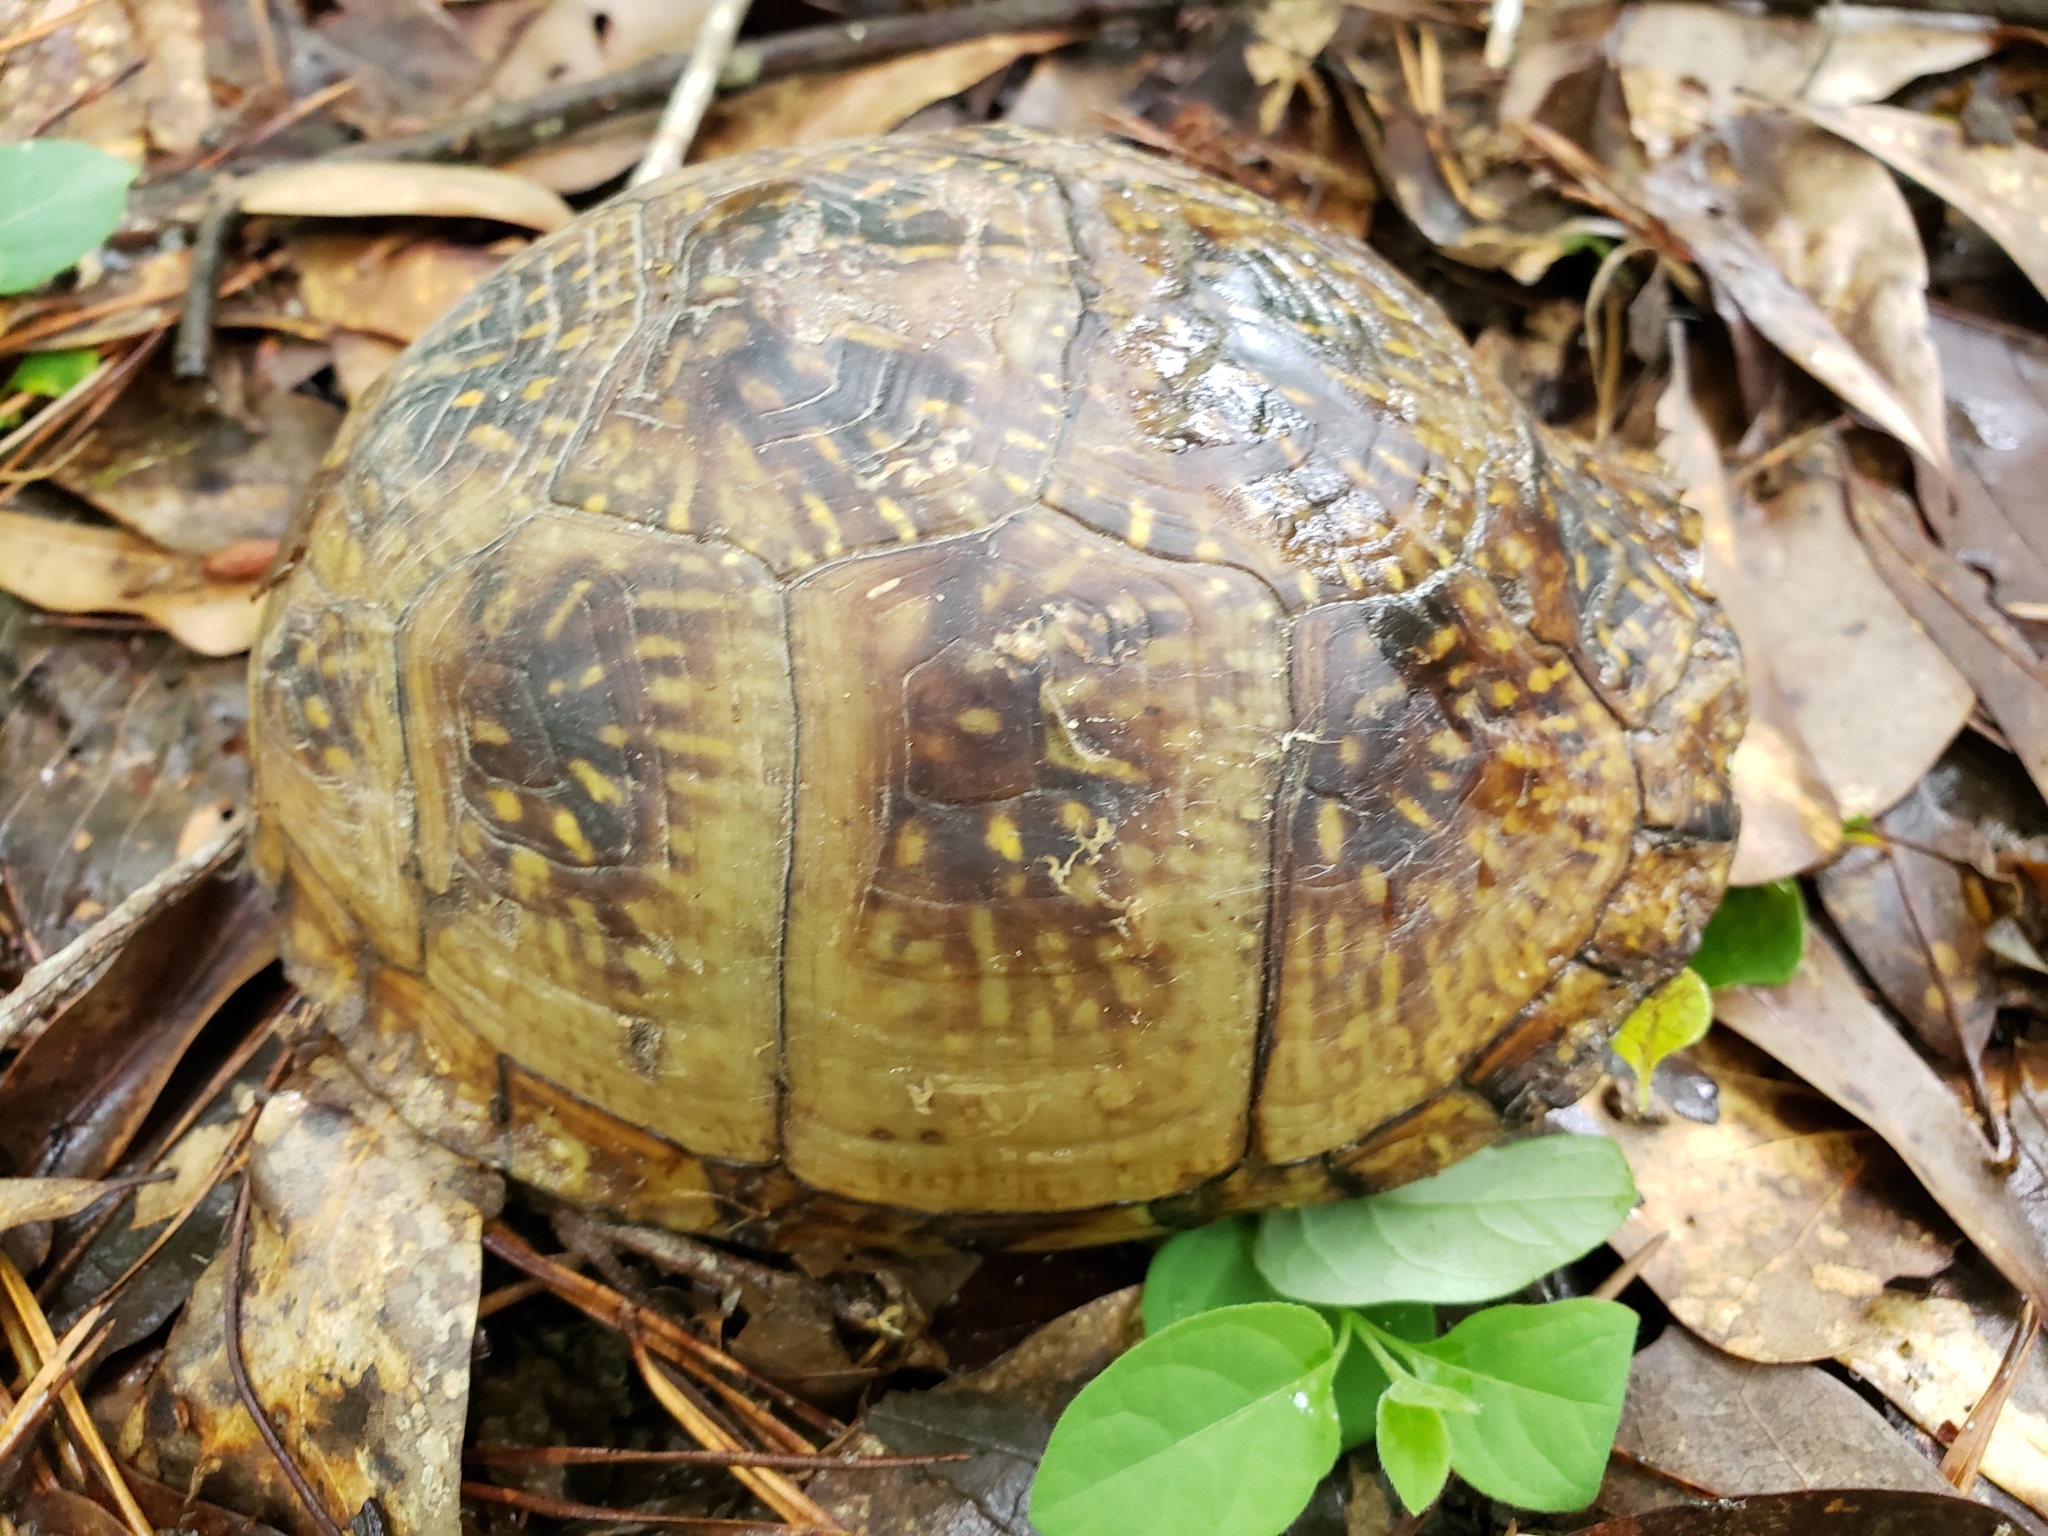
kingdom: Animalia
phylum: Chordata
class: Testudines
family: Emydidae
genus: Terrapene
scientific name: Terrapene carolina
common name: Common box turtle
